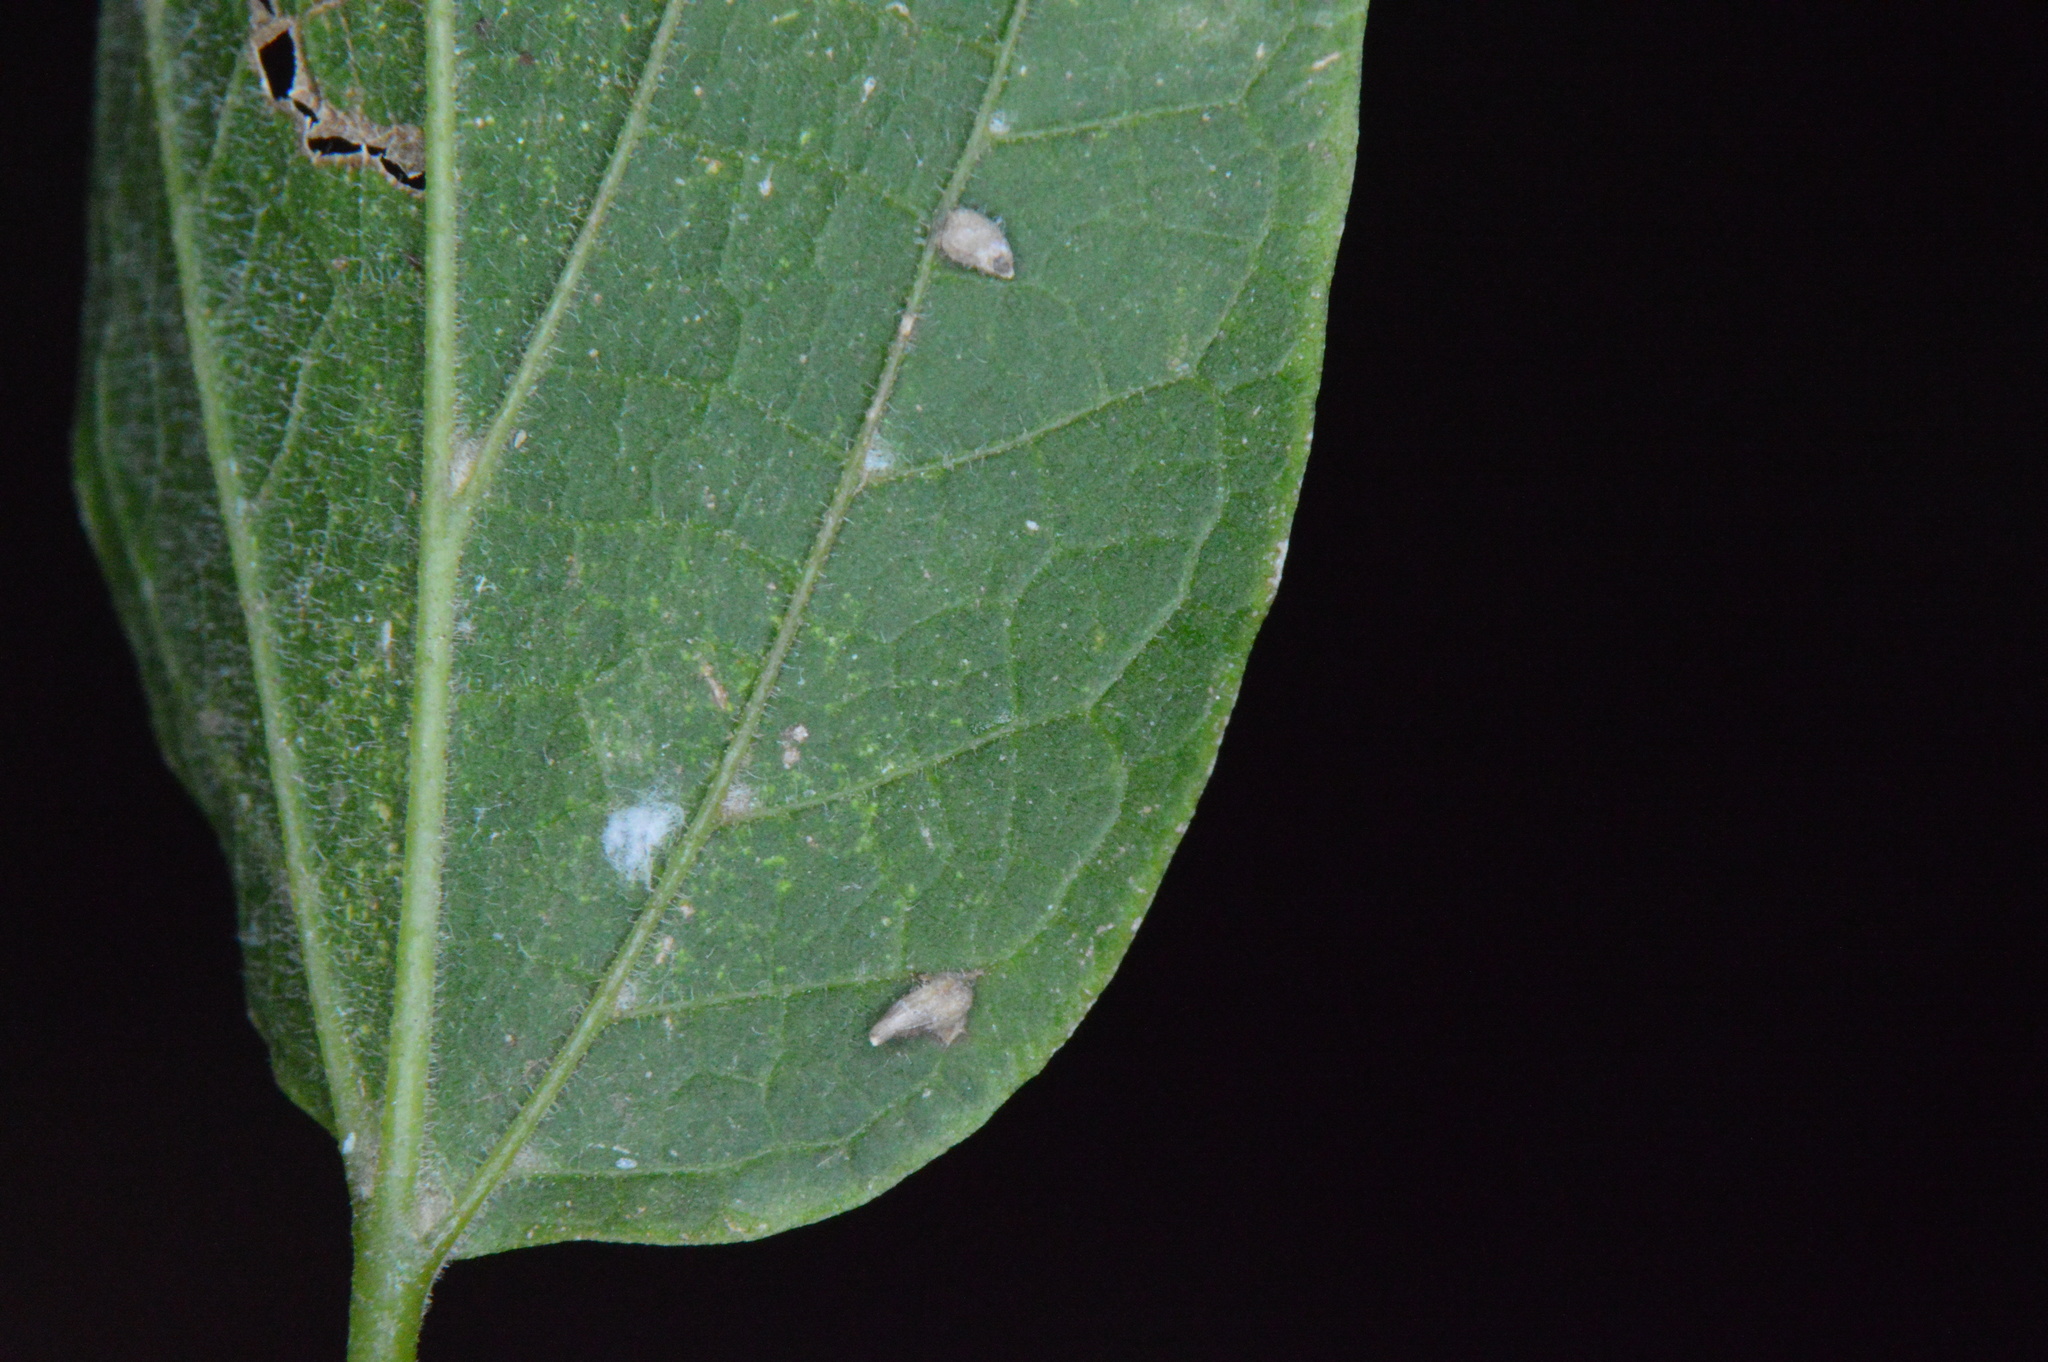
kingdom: Animalia
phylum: Arthropoda
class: Insecta
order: Diptera
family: Cecidomyiidae
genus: Celticecis
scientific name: Celticecis supina
